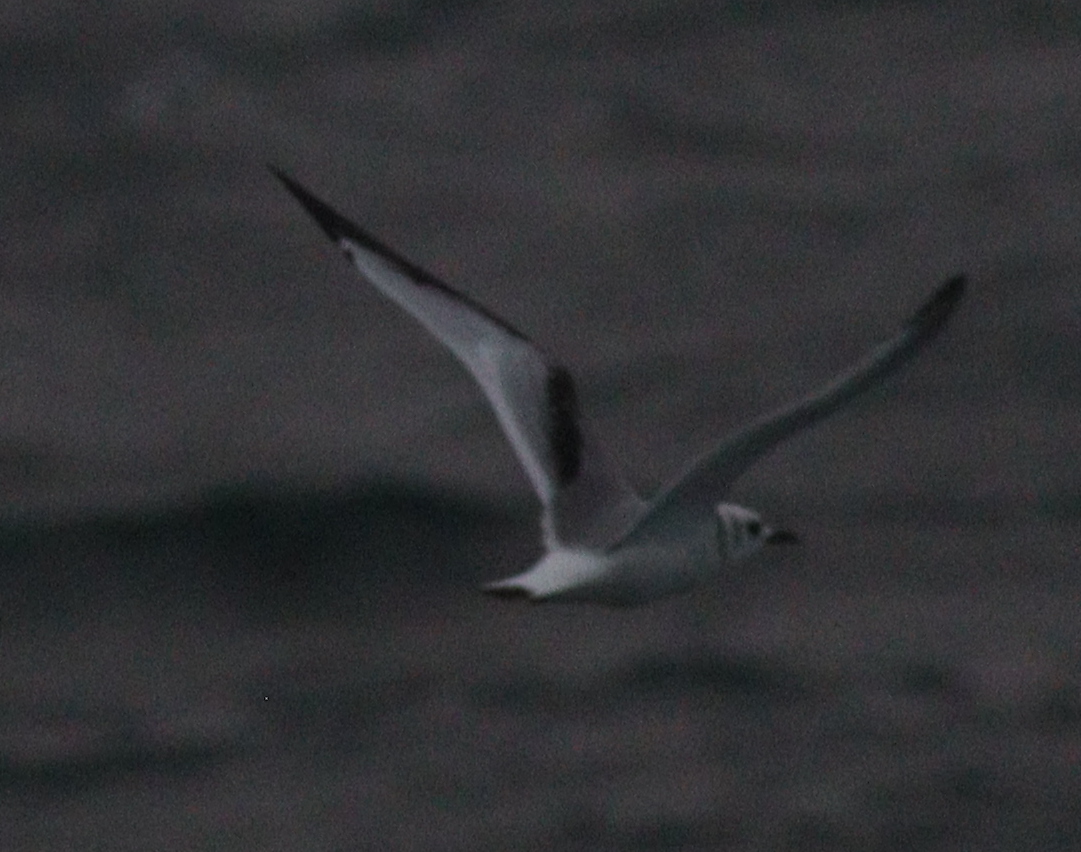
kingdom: Animalia
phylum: Chordata
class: Aves
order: Charadriiformes
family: Laridae
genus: Rissa
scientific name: Rissa tridactyla
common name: Black-legged kittiwake
